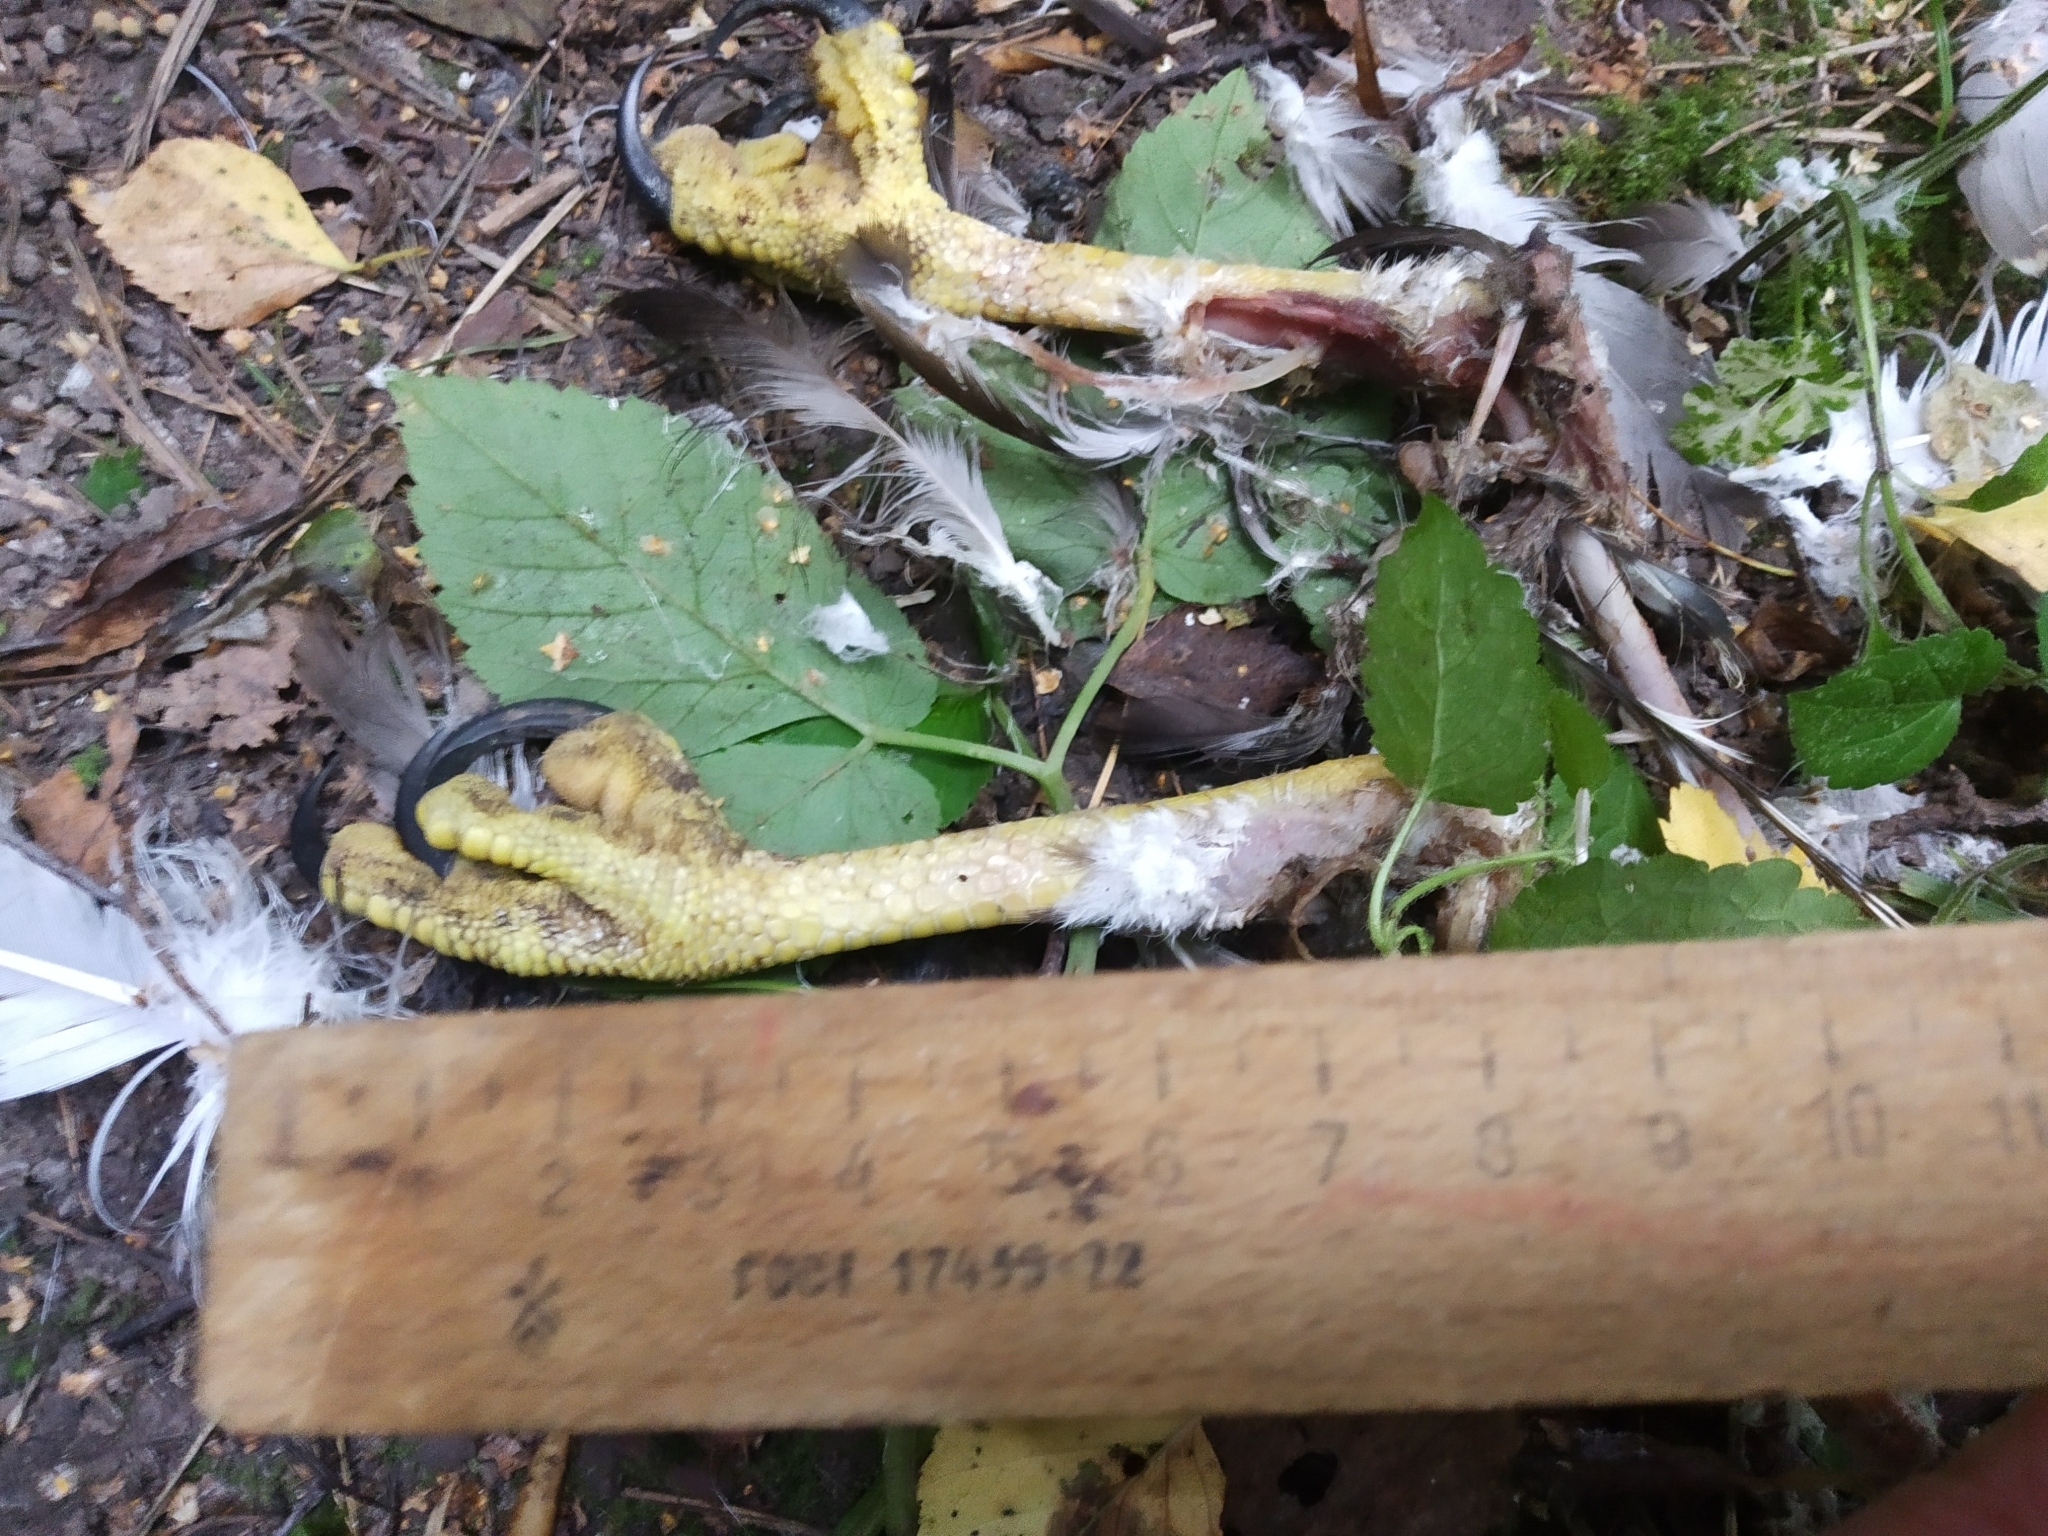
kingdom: Animalia
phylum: Chordata
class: Aves
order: Accipitriformes
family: Accipitridae
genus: Buteo
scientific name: Buteo buteo
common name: Common buzzard
